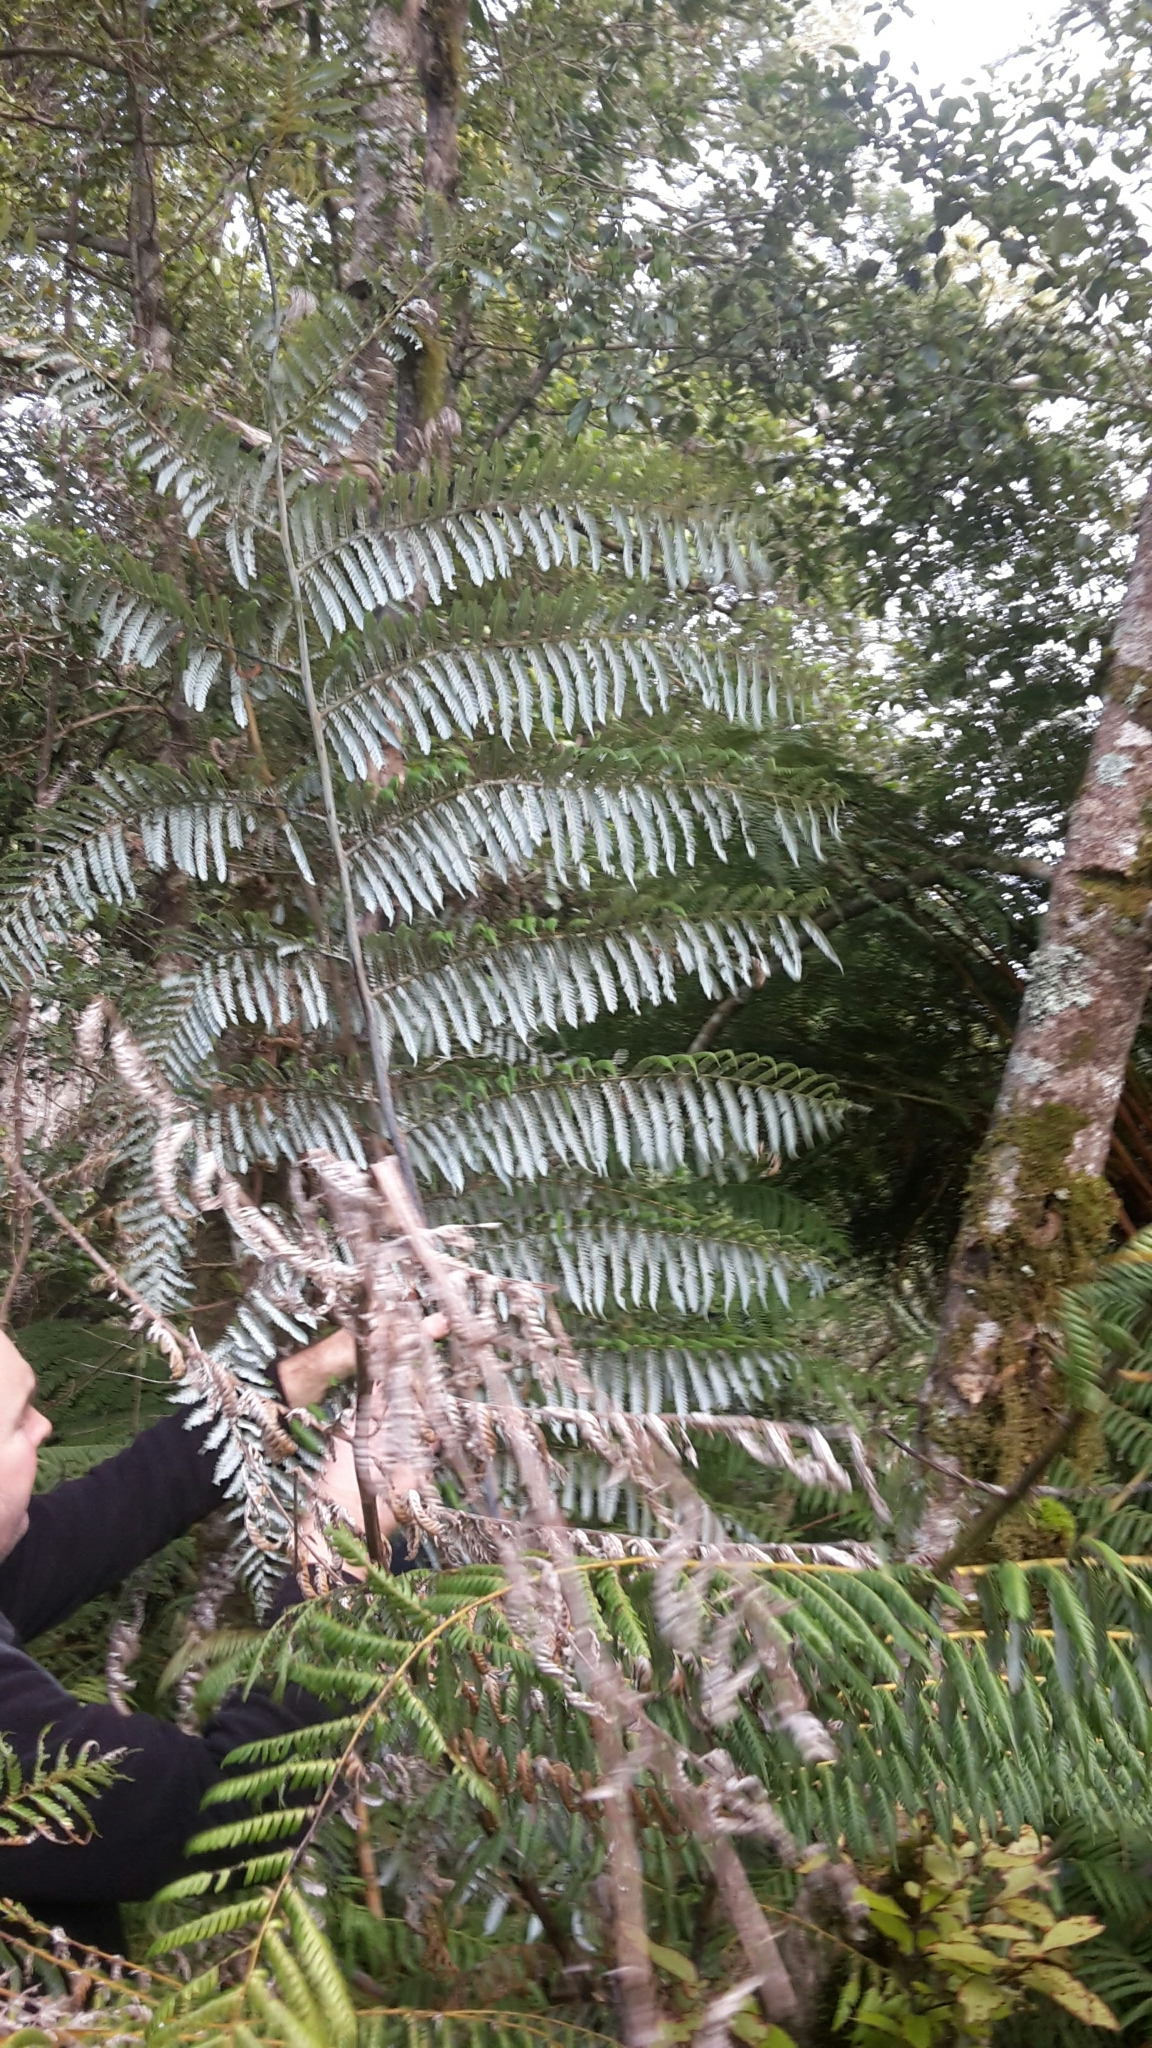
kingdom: Plantae
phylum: Tracheophyta
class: Polypodiopsida
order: Cyatheales
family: Cyatheaceae
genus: Alsophila
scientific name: Alsophila dealbata
